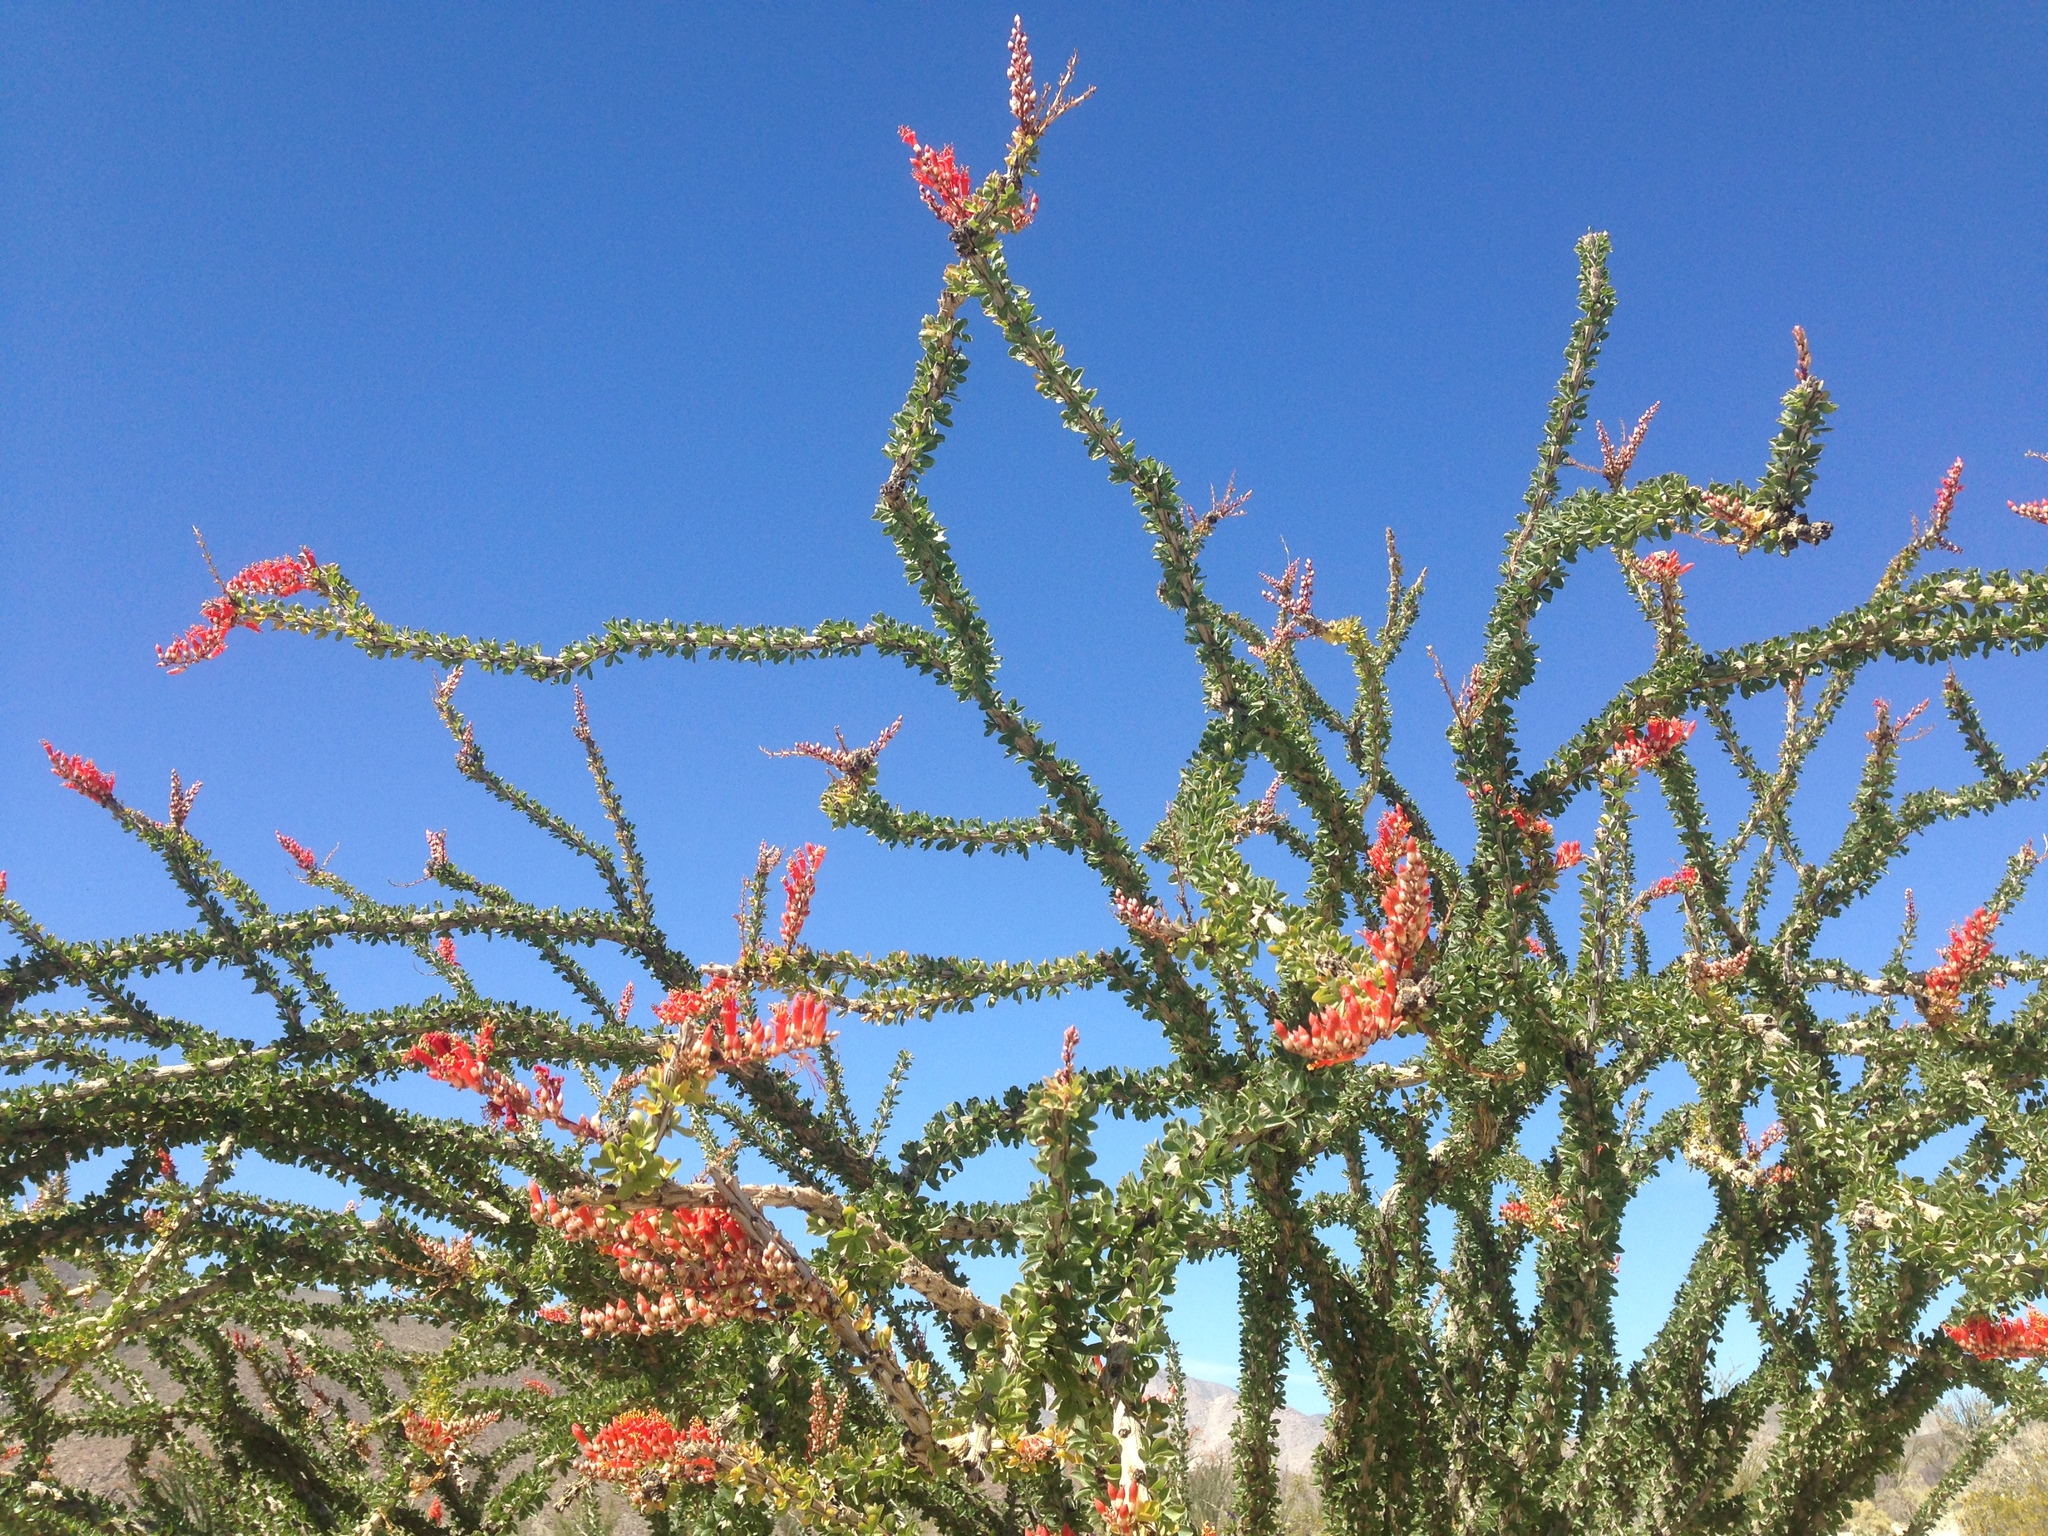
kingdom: Plantae
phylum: Tracheophyta
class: Magnoliopsida
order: Ericales
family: Fouquieriaceae
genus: Fouquieria
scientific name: Fouquieria splendens
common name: Vine-cactus
